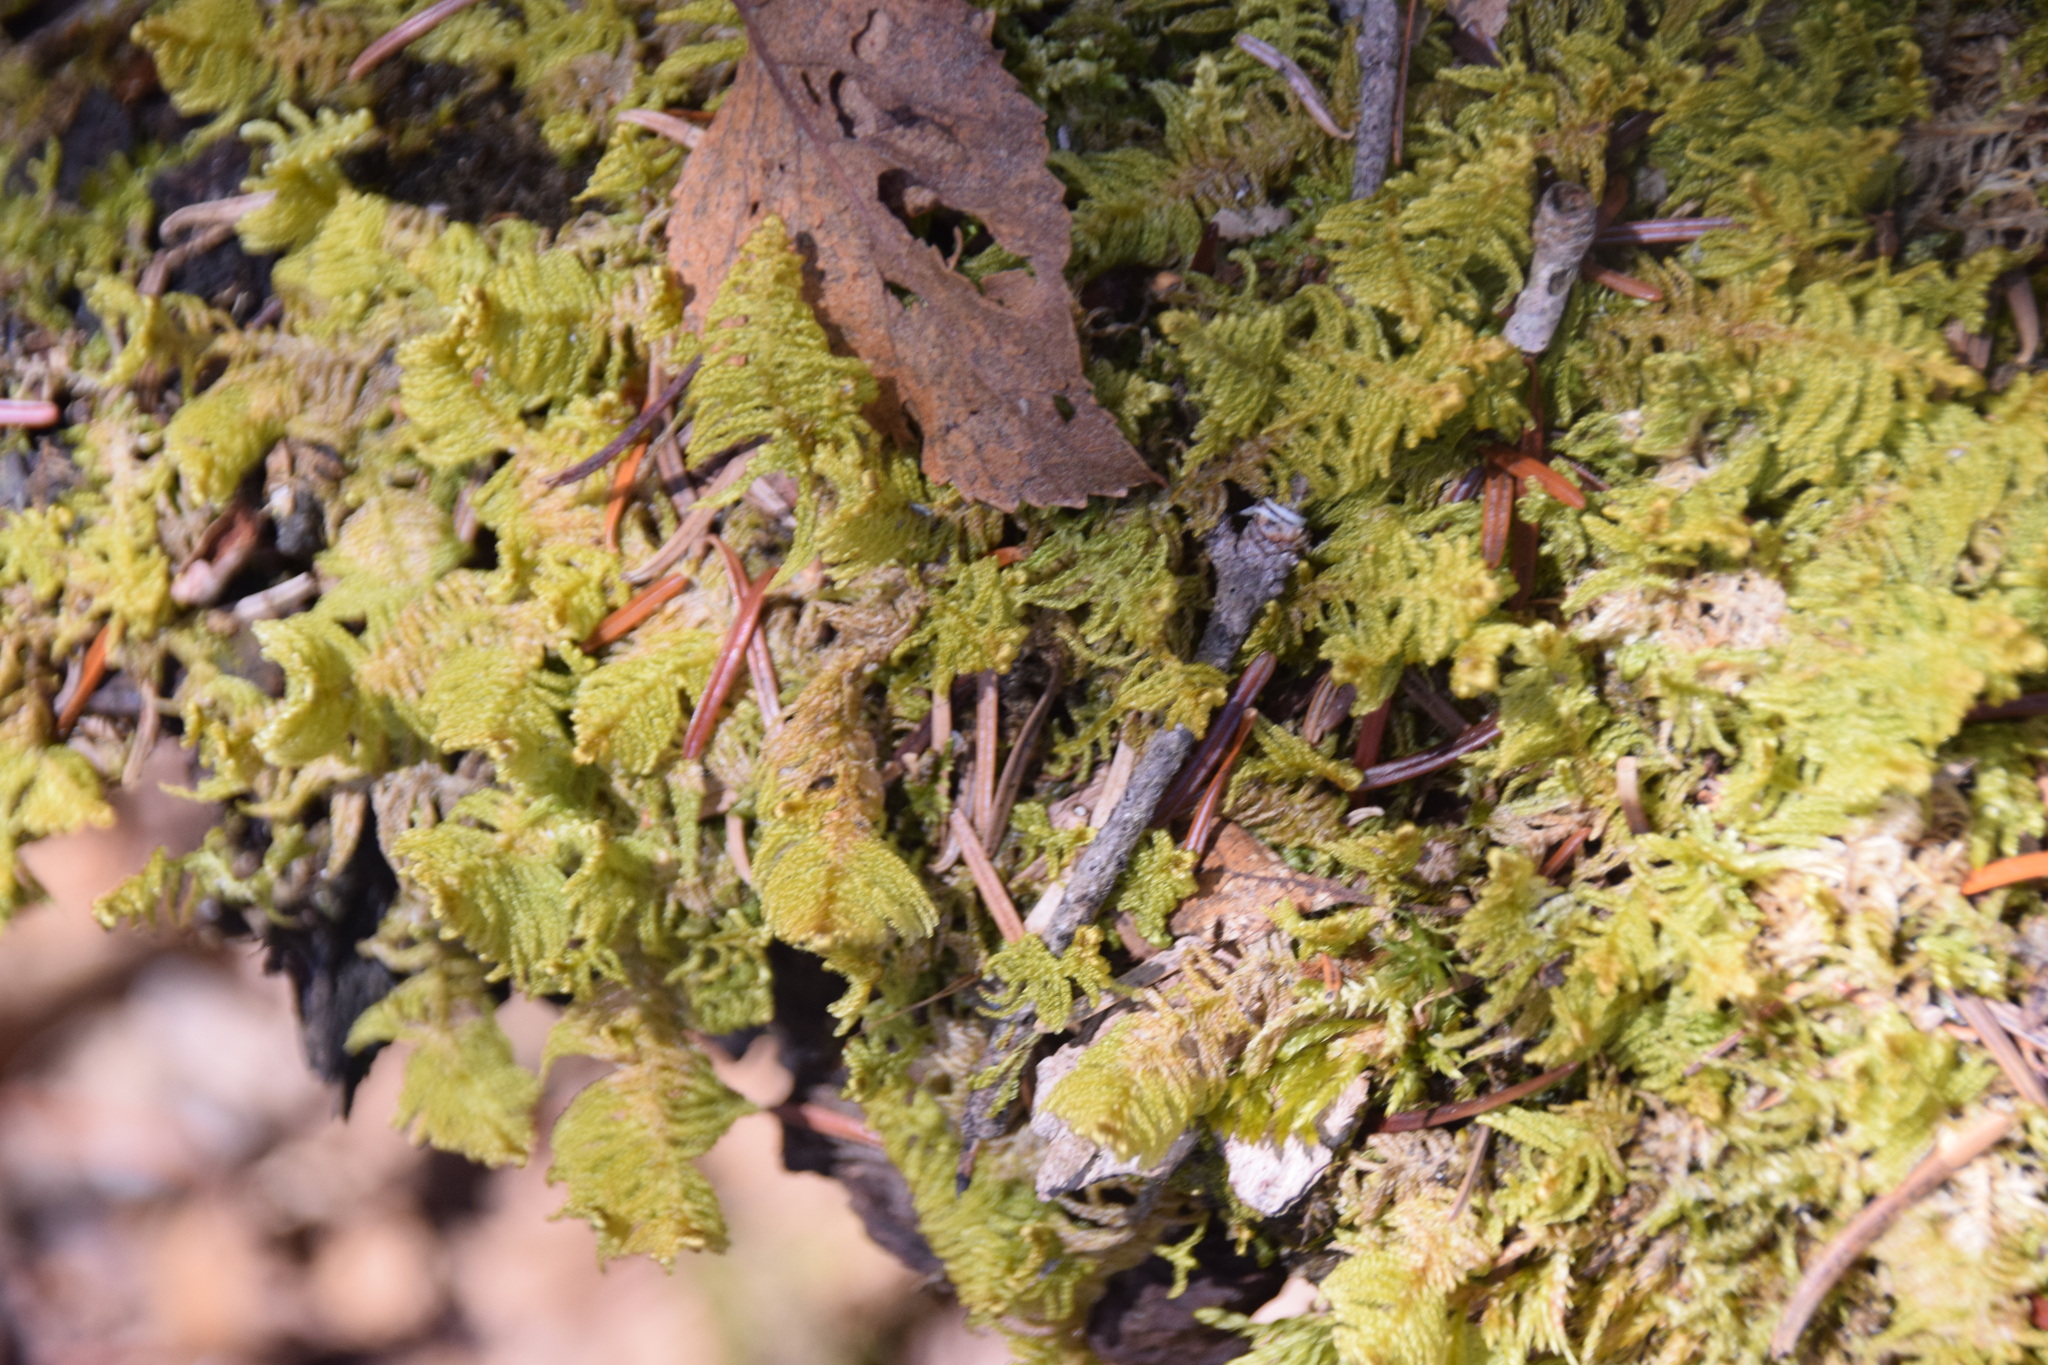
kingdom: Plantae
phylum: Bryophyta
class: Bryopsida
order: Hypnales
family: Pylaisiaceae
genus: Ptilium
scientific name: Ptilium crista-castrensis
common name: Knight's plume moss
